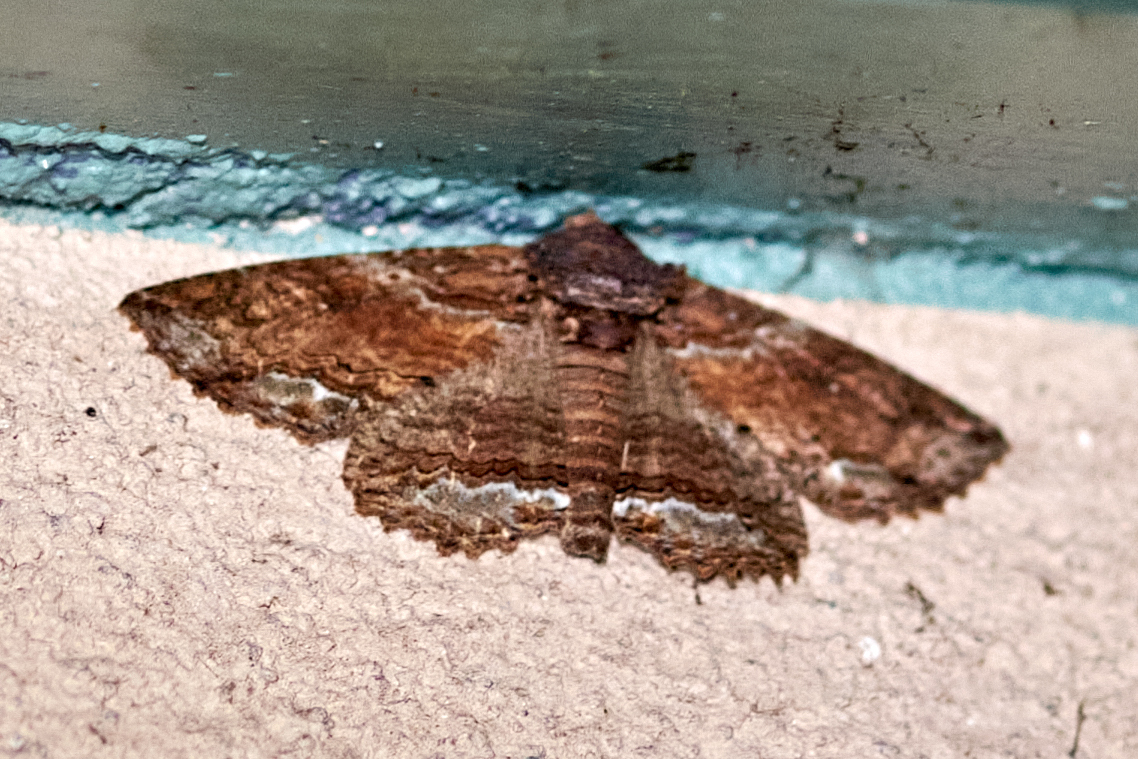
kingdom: Animalia
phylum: Arthropoda
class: Insecta
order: Lepidoptera
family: Erebidae
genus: Zale
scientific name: Zale lunata
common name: Lunate zale moth
